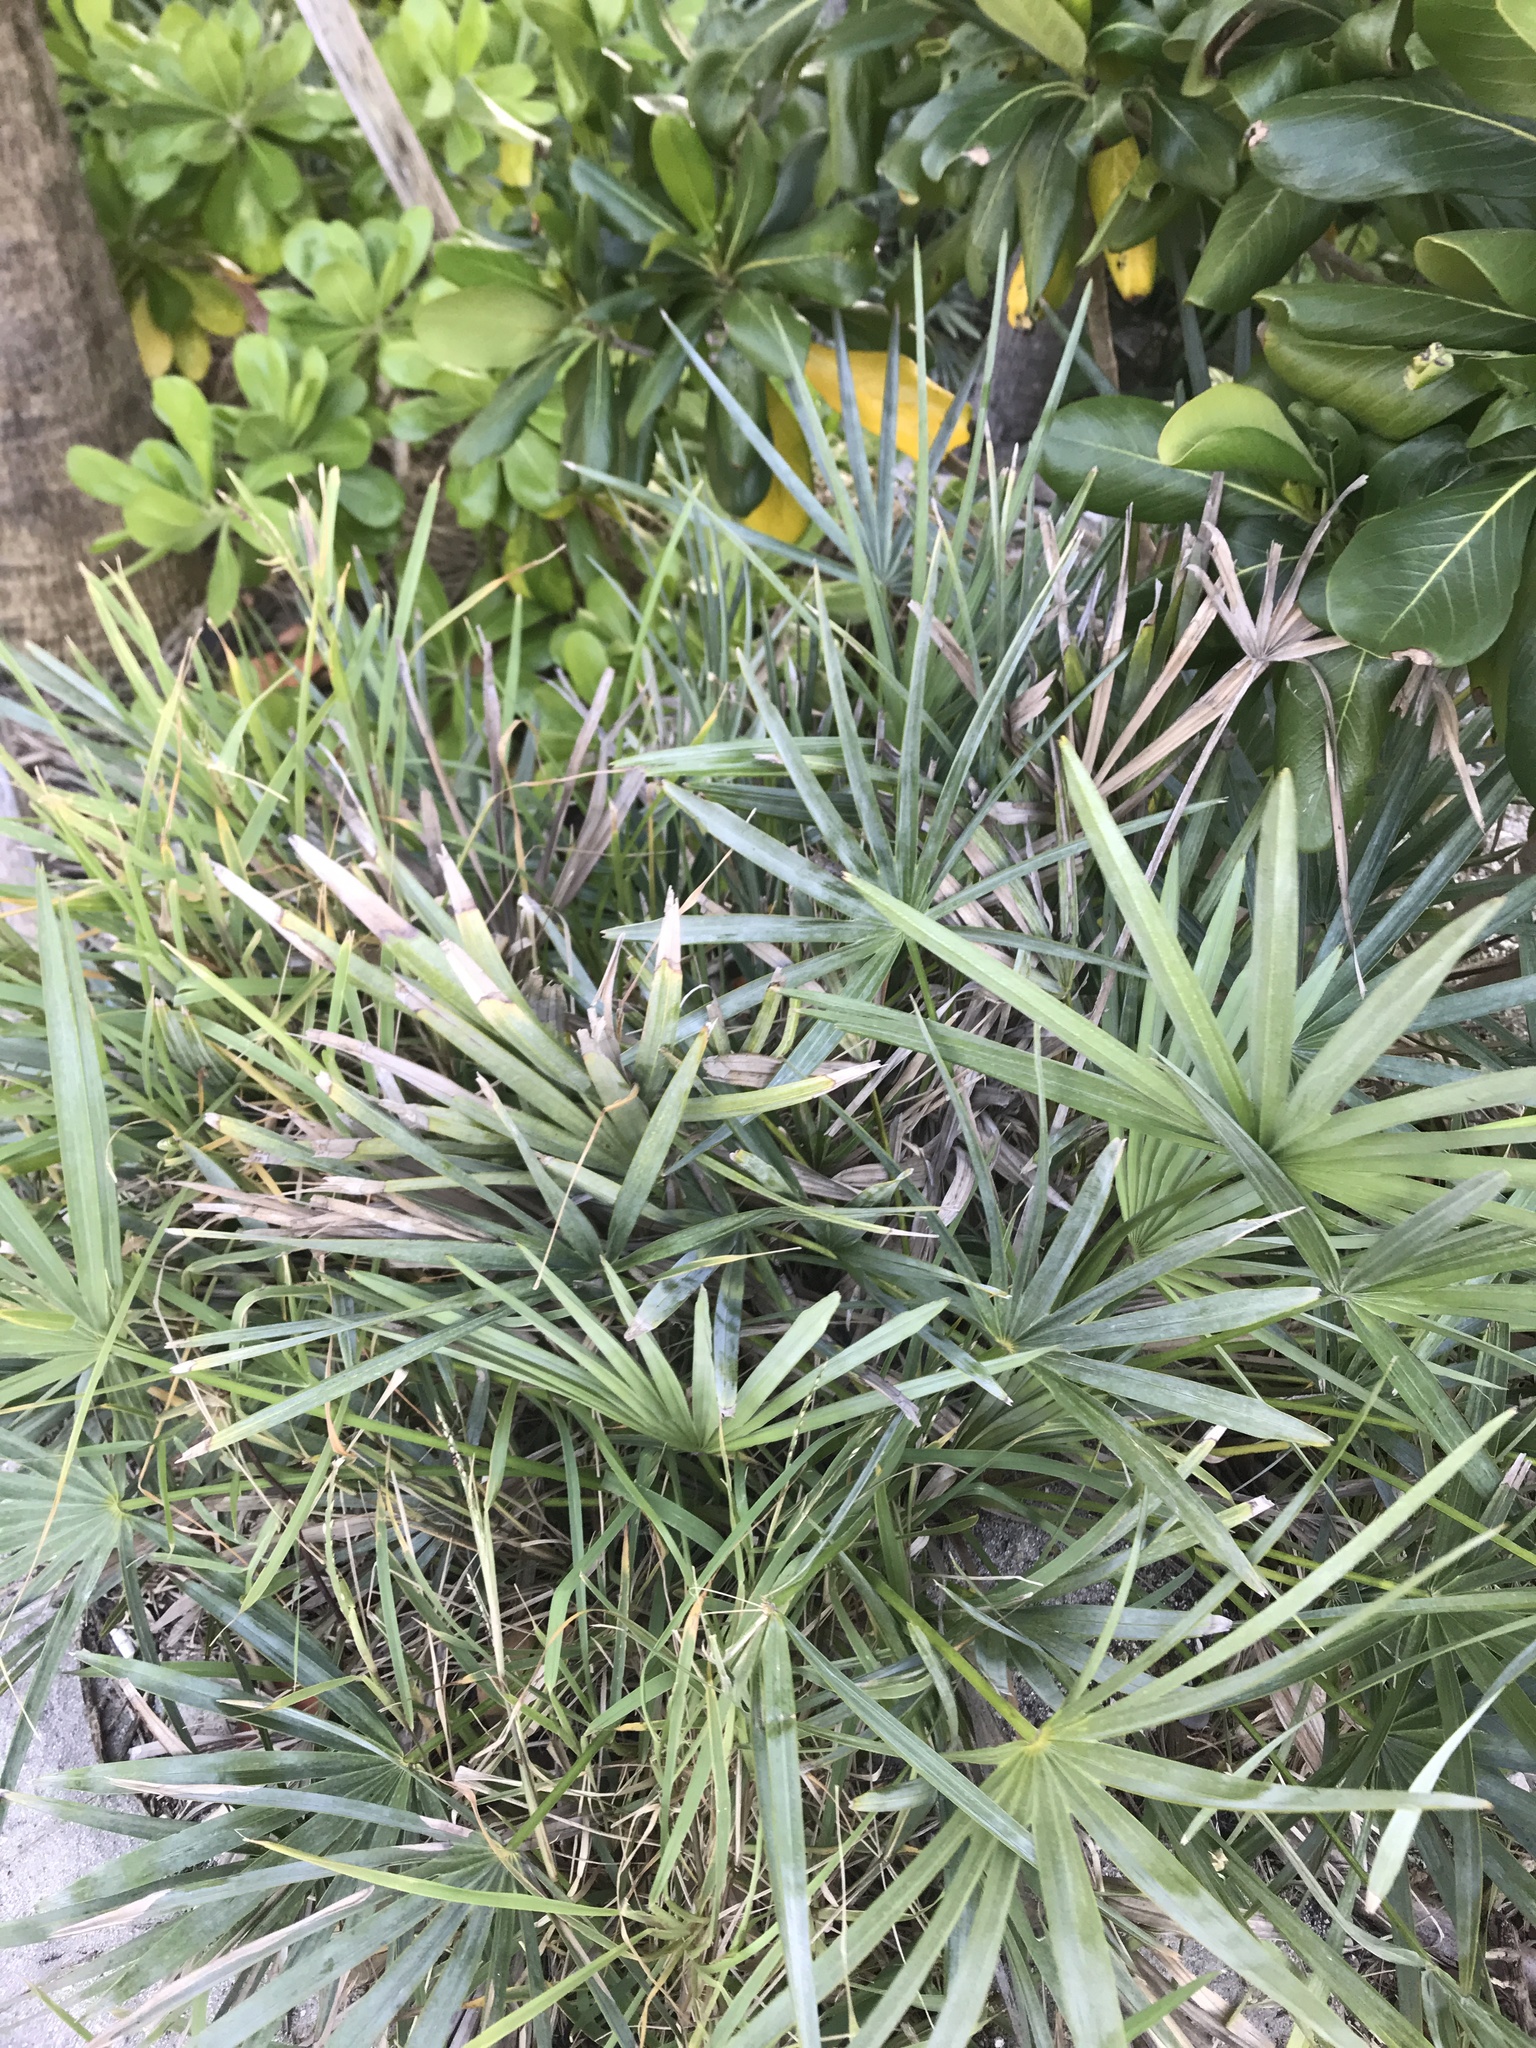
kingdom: Plantae
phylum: Tracheophyta
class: Liliopsida
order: Arecales
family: Arecaceae
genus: Serenoa
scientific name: Serenoa repens
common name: Saw-palmetto
